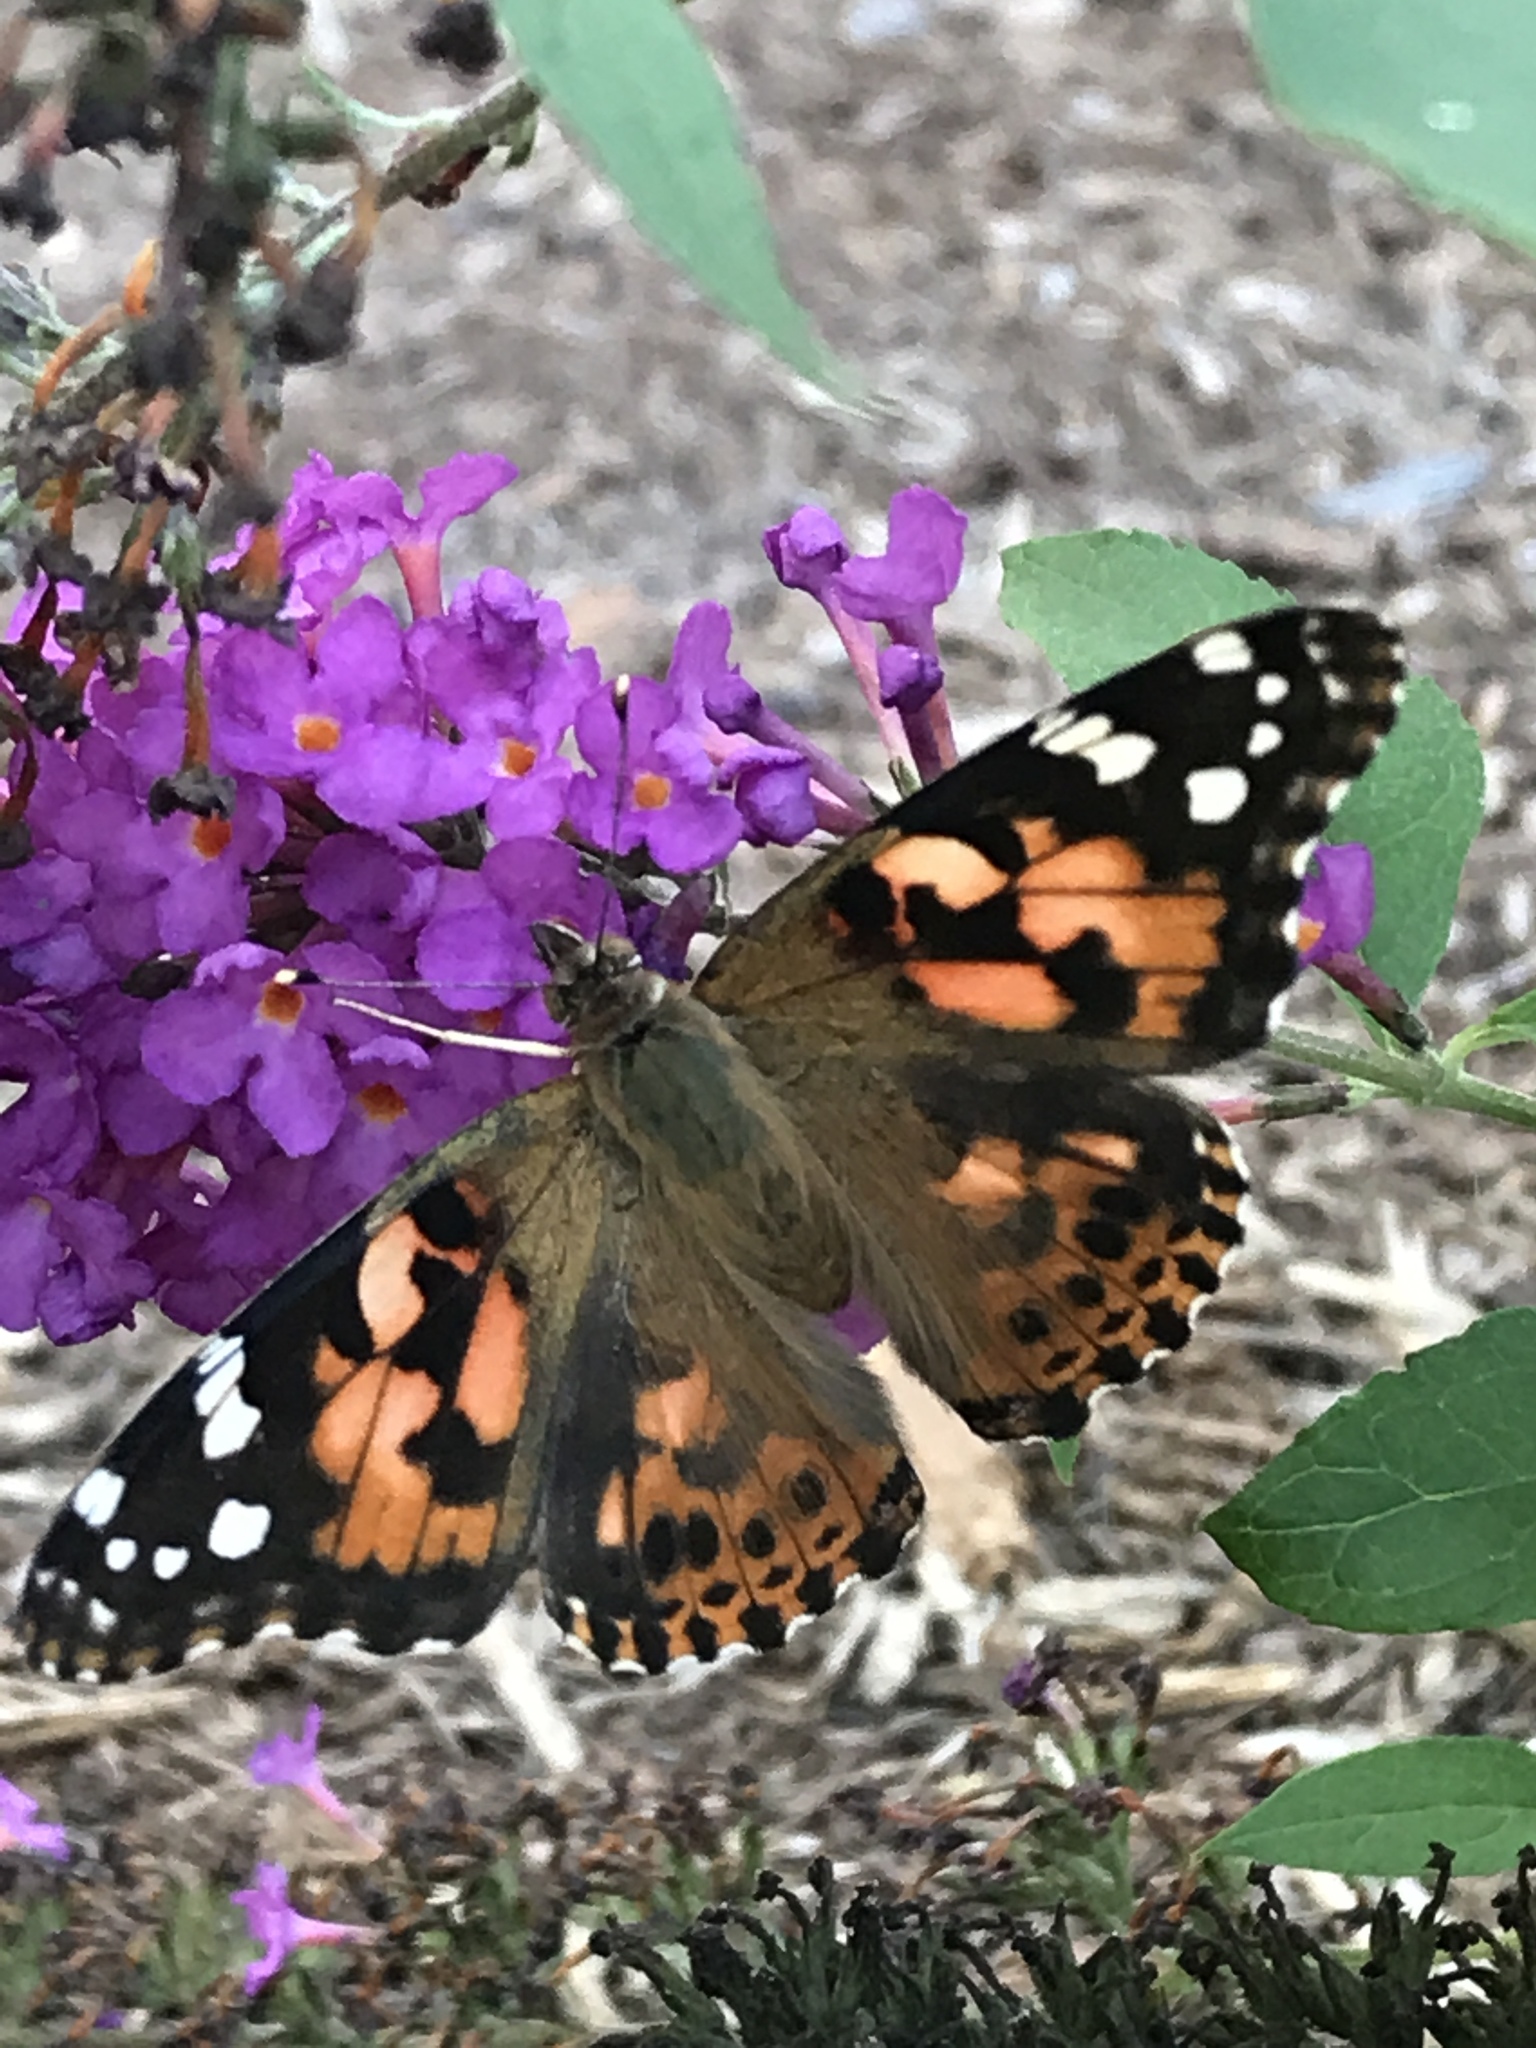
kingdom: Animalia
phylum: Arthropoda
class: Insecta
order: Lepidoptera
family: Nymphalidae
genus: Vanessa
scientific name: Vanessa cardui
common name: Painted lady
